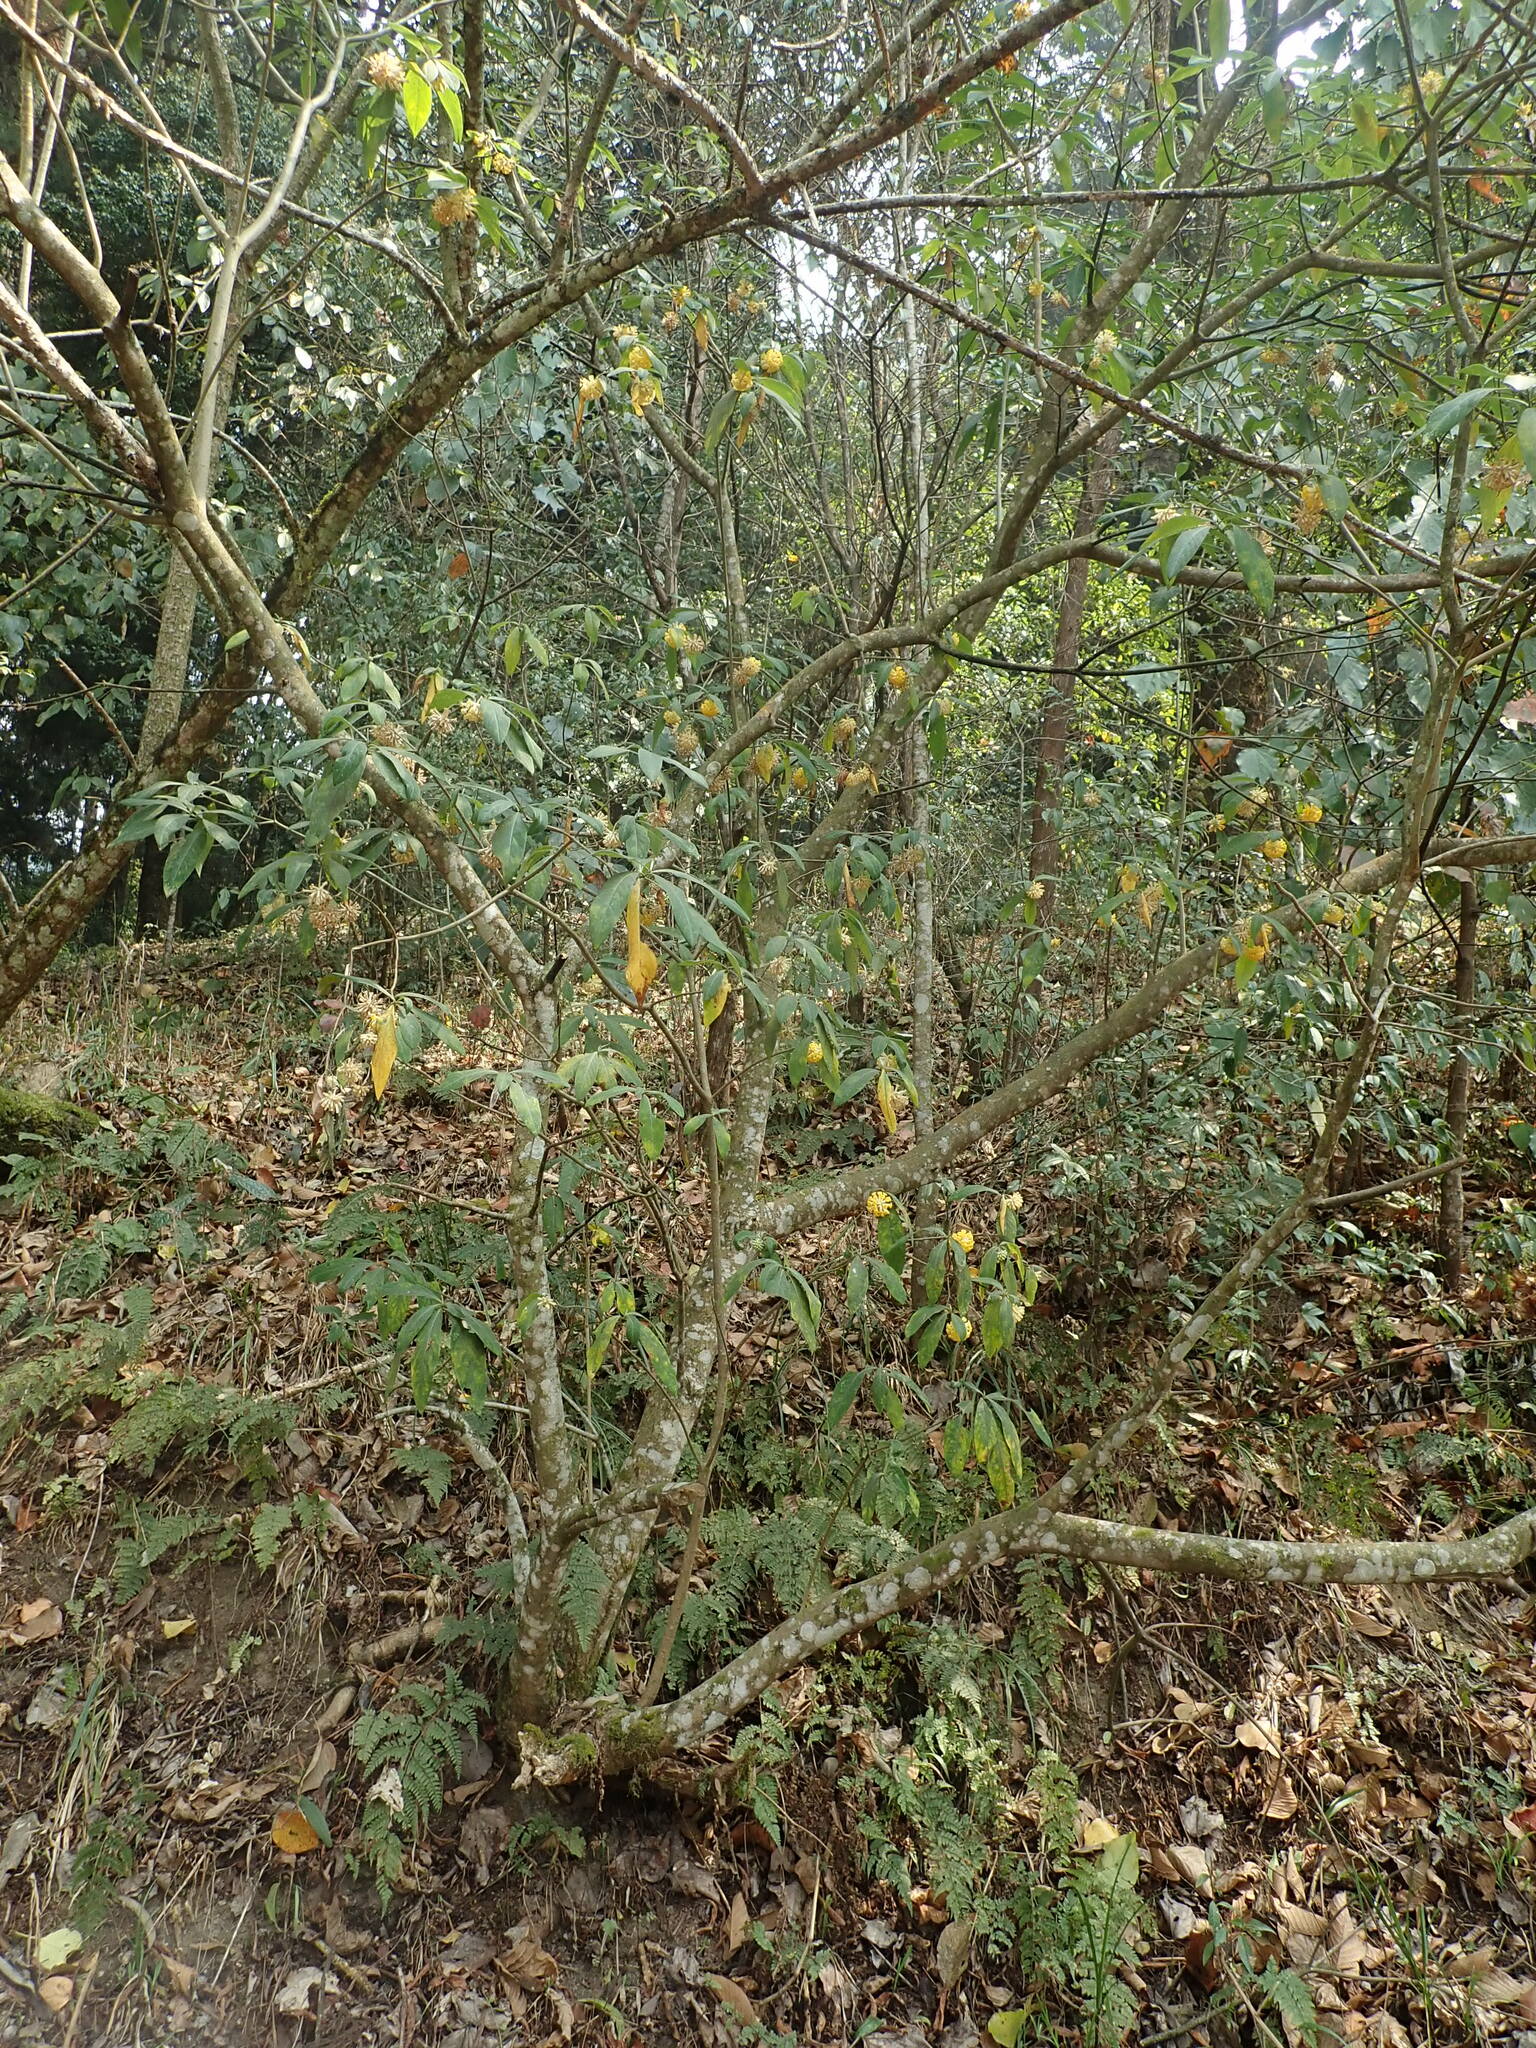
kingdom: Plantae
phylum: Tracheophyta
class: Magnoliopsida
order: Malvales
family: Thymelaeaceae
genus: Edgeworthia
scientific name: Edgeworthia gardneri
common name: Nepalese paperbush
